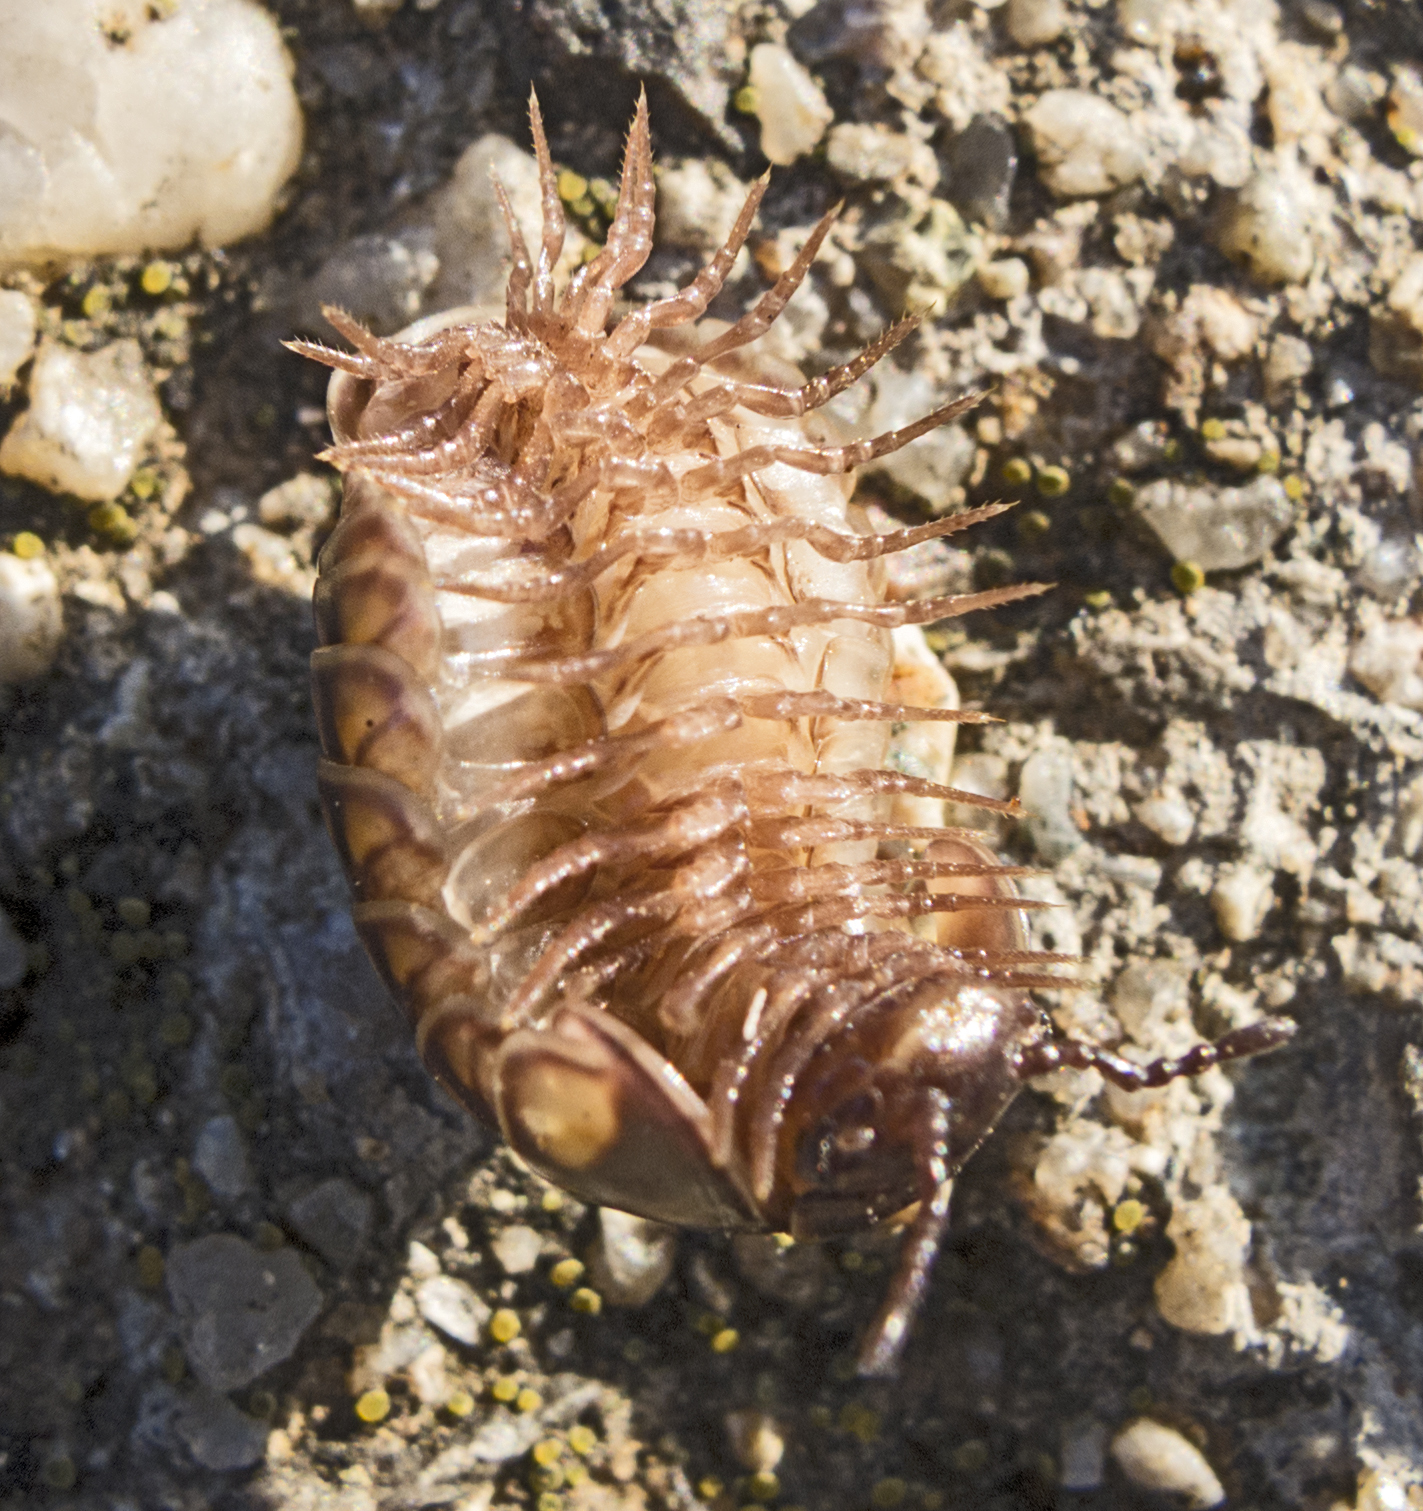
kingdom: Animalia
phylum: Arthropoda
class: Diplopoda
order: Glomerida
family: Glomeridae
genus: Glomeris
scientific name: Glomeris hexasticha
